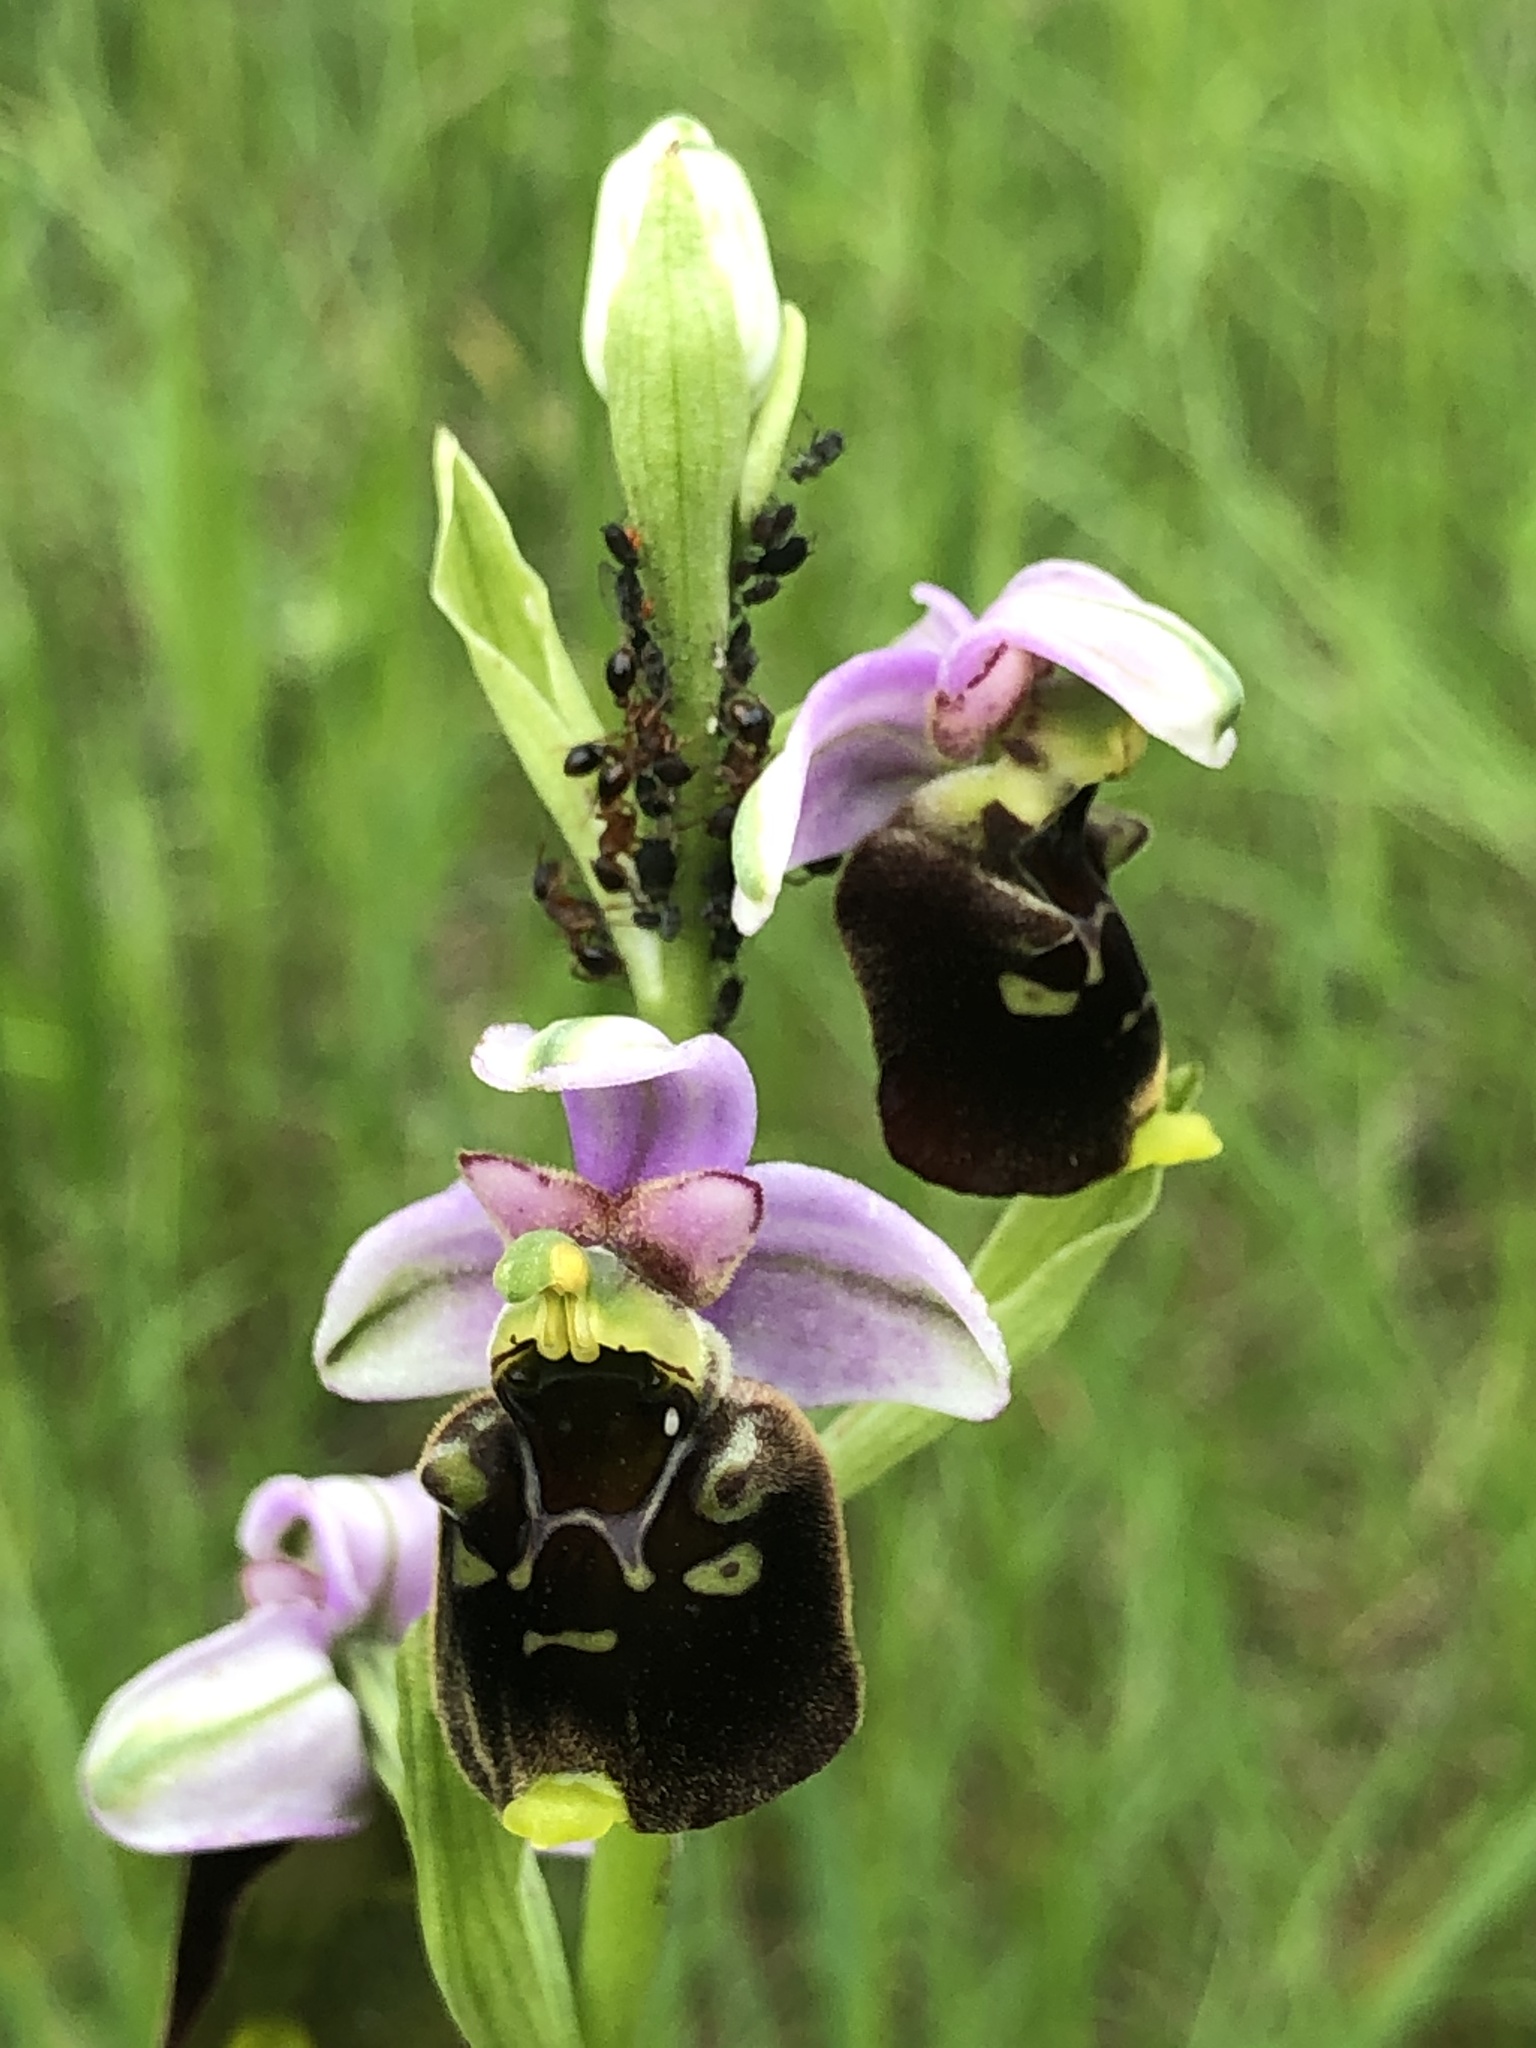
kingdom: Plantae
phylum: Tracheophyta
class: Liliopsida
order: Asparagales
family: Orchidaceae
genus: Ophrys
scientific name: Ophrys holosericea
